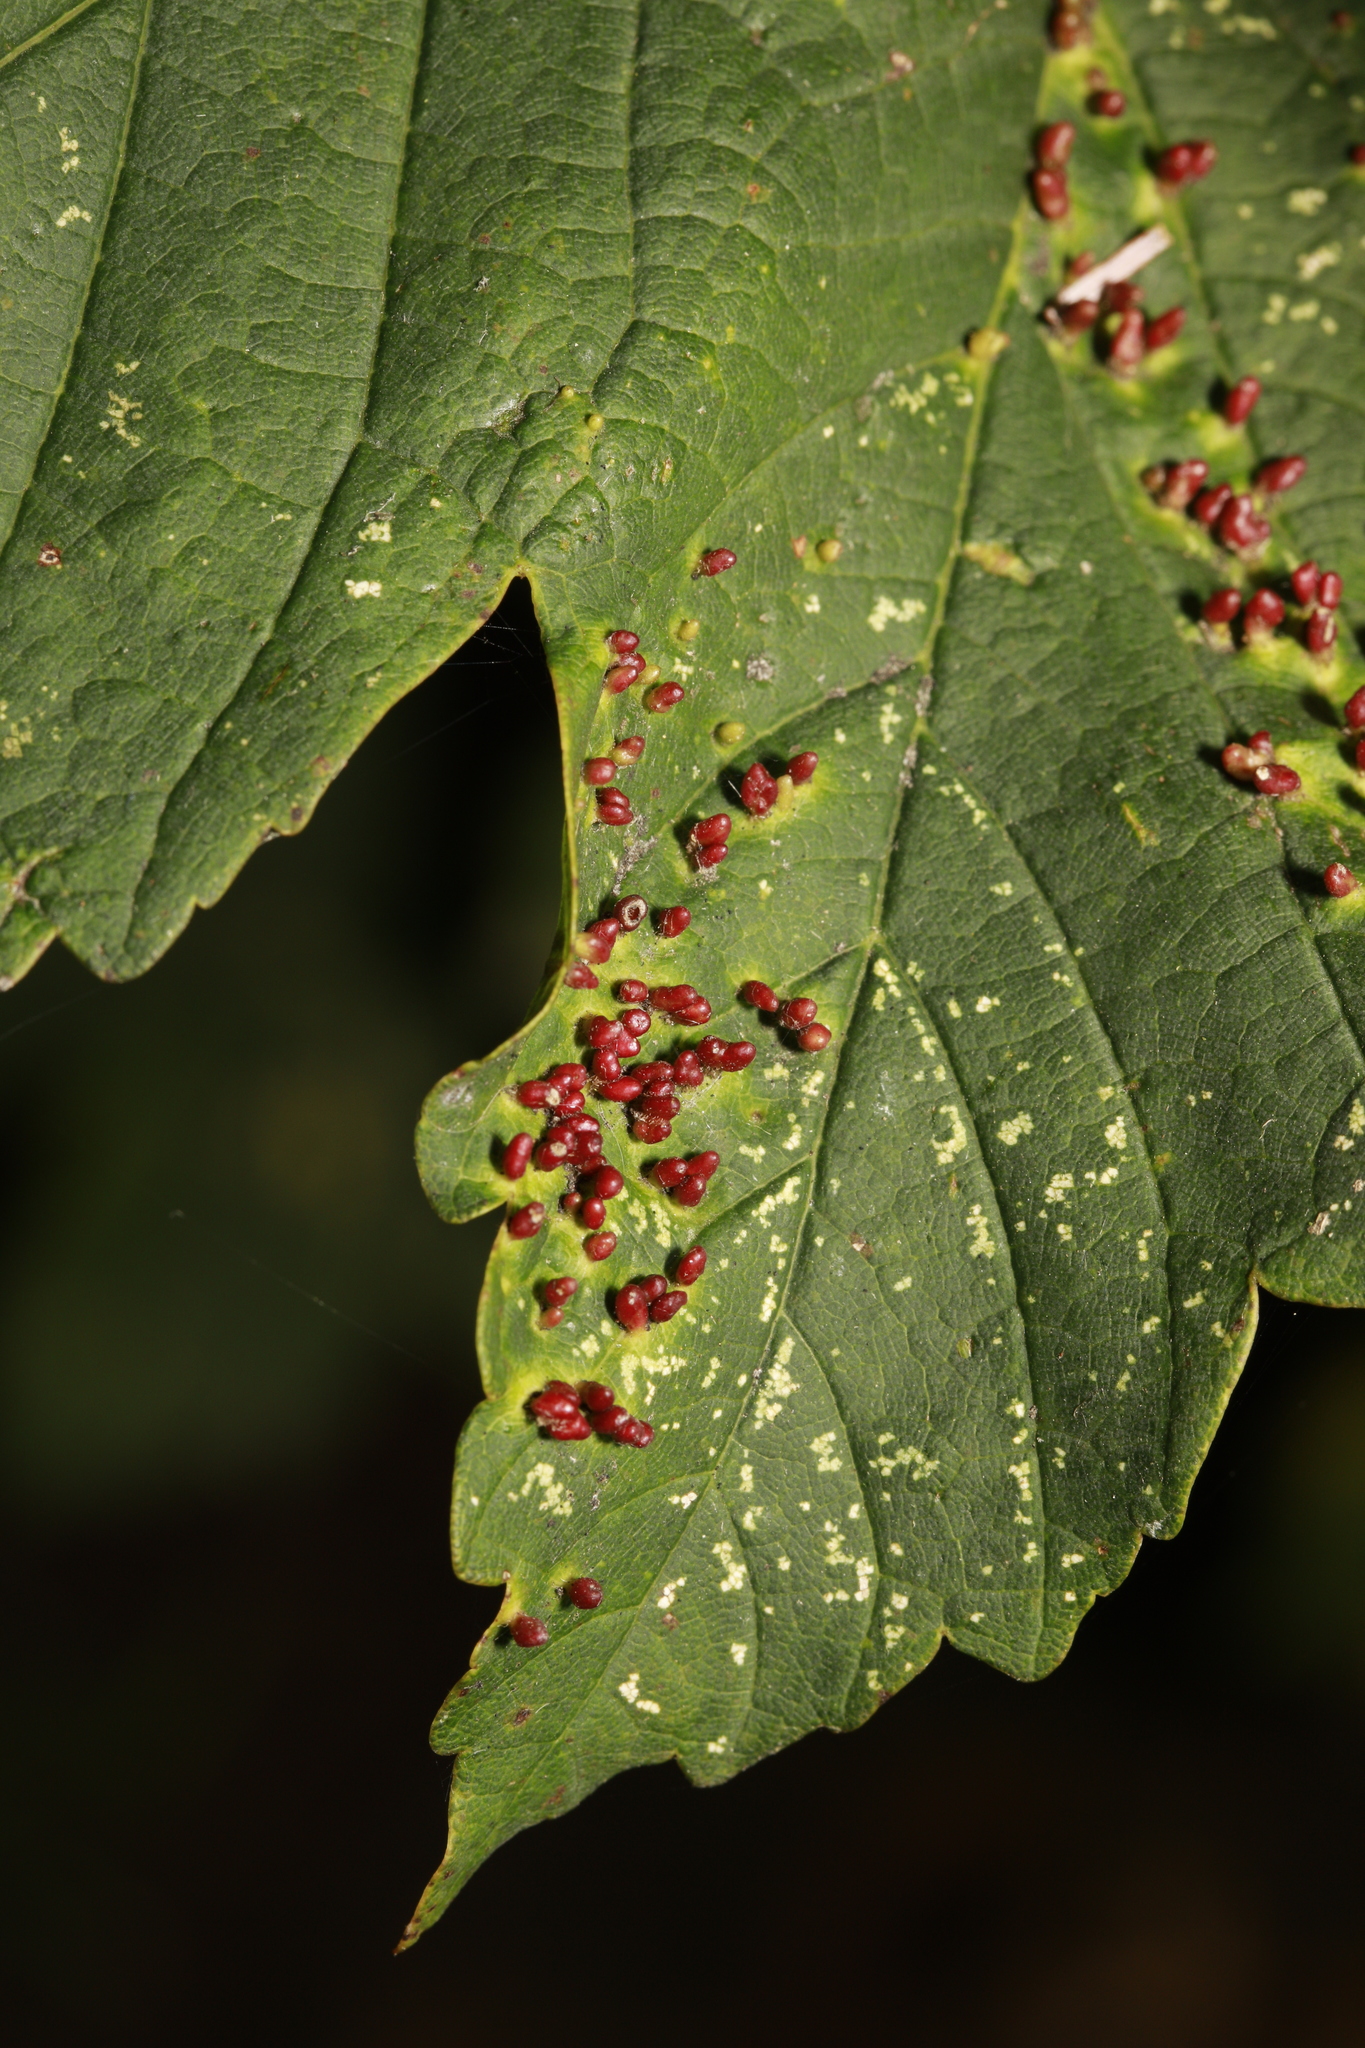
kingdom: Animalia
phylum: Arthropoda
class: Arachnida
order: Trombidiformes
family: Eriophyidae
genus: Aceria
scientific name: Aceria cephaloneus
